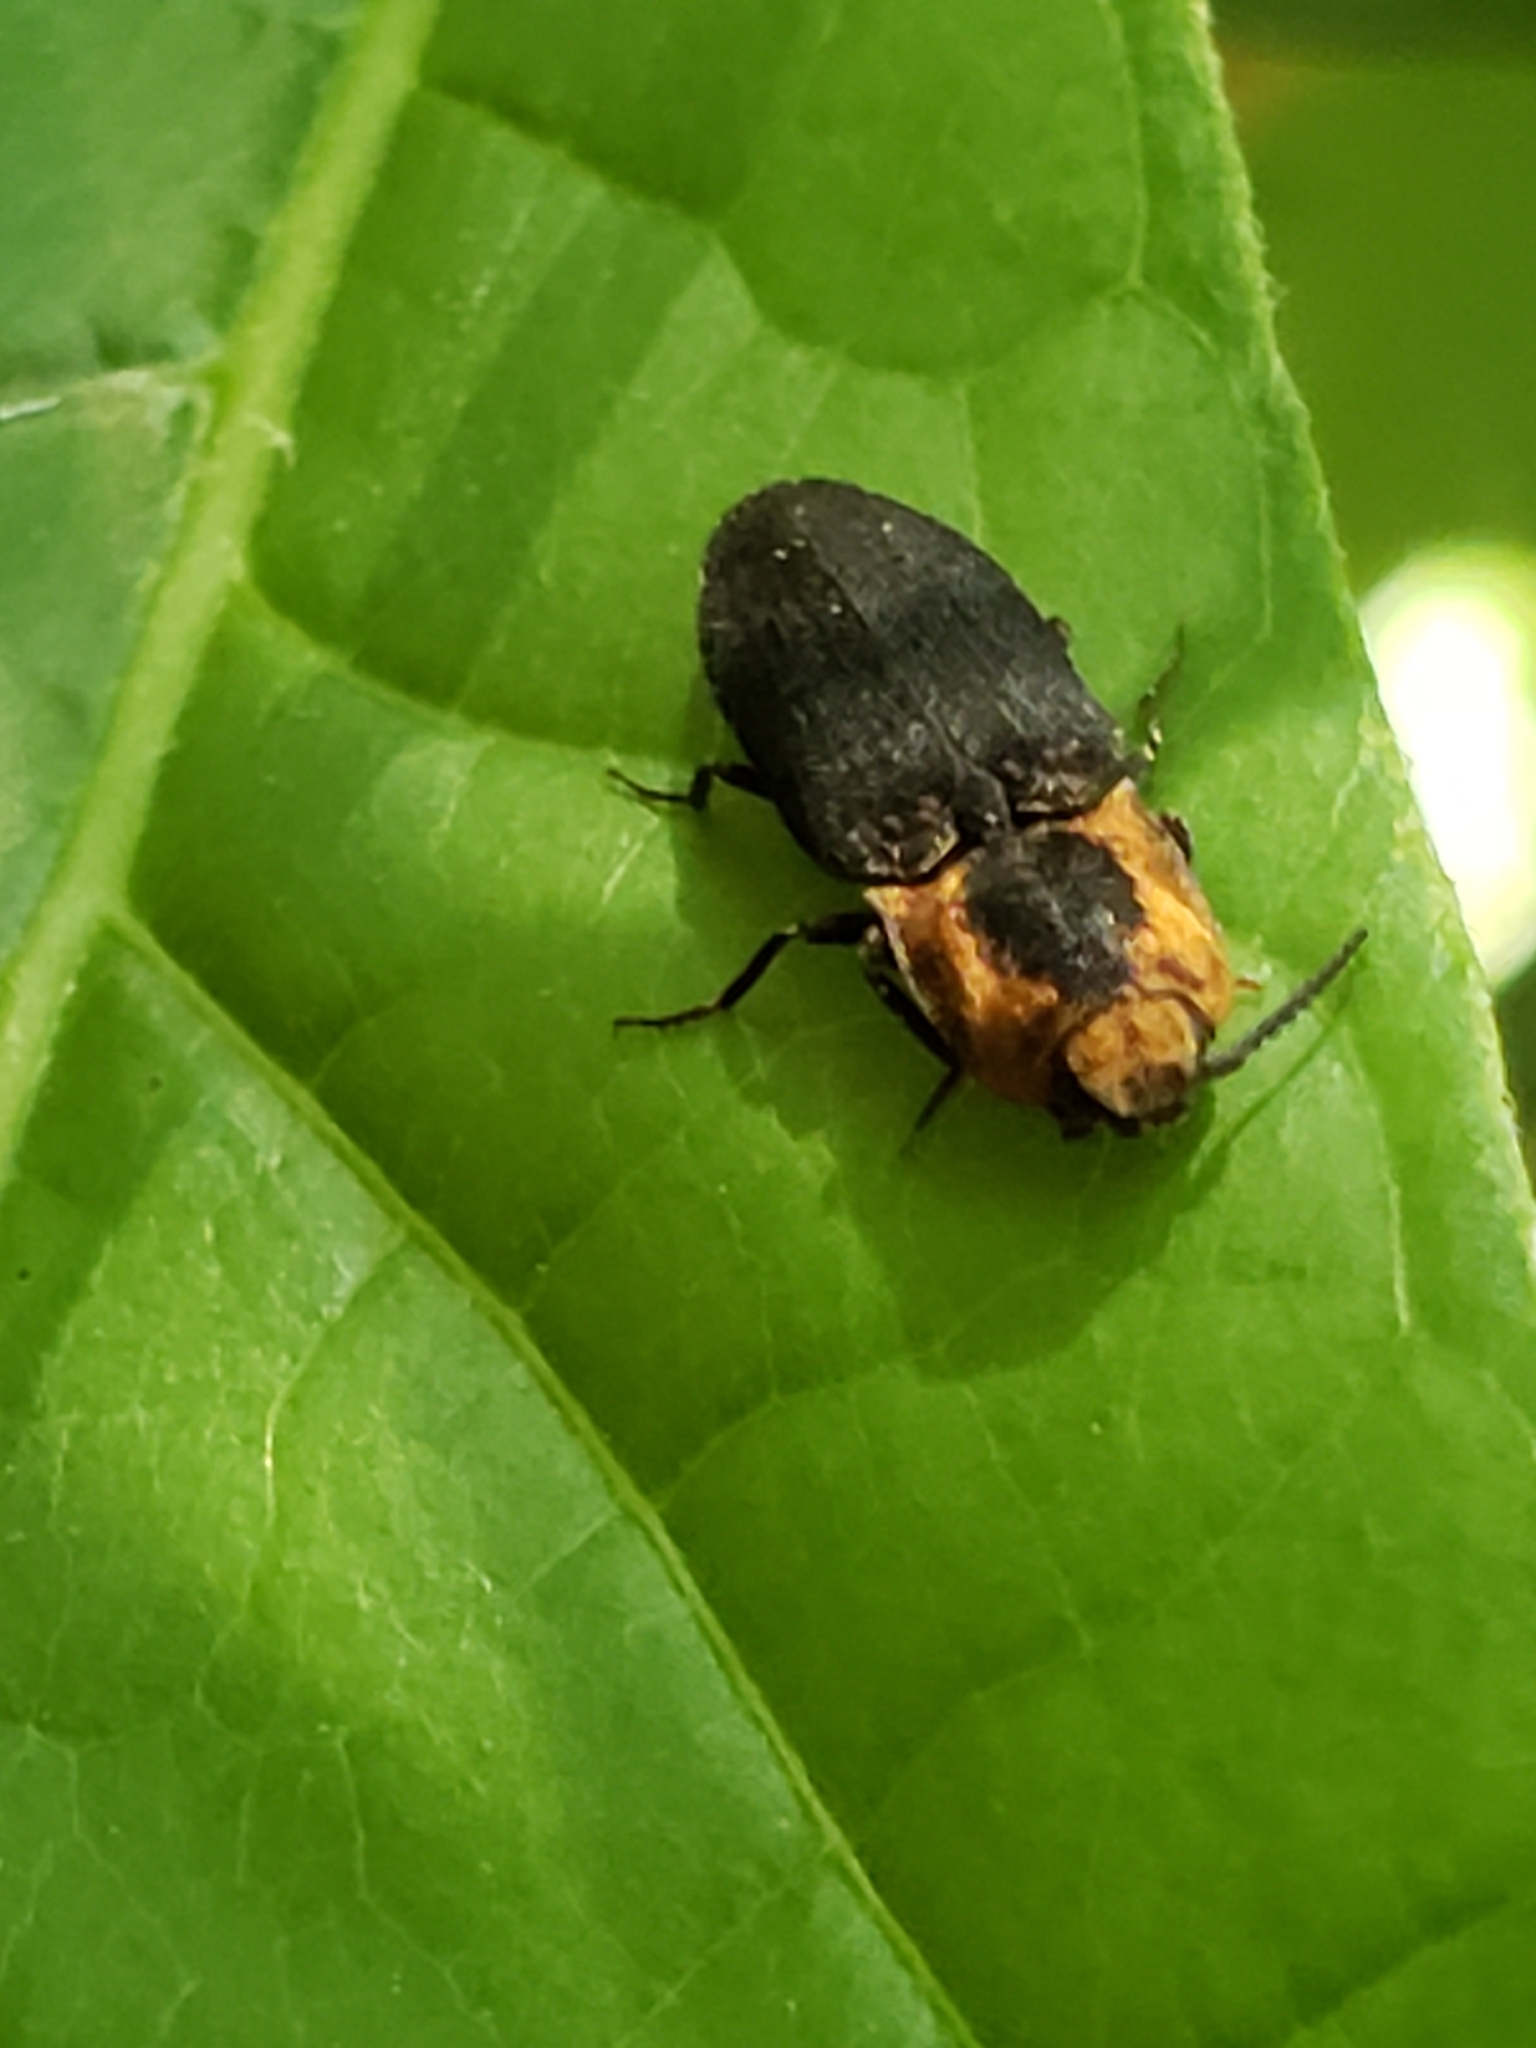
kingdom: Animalia
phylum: Arthropoda
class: Insecta
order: Coleoptera
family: Elateridae
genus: Lacon
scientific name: Lacon discoideus
